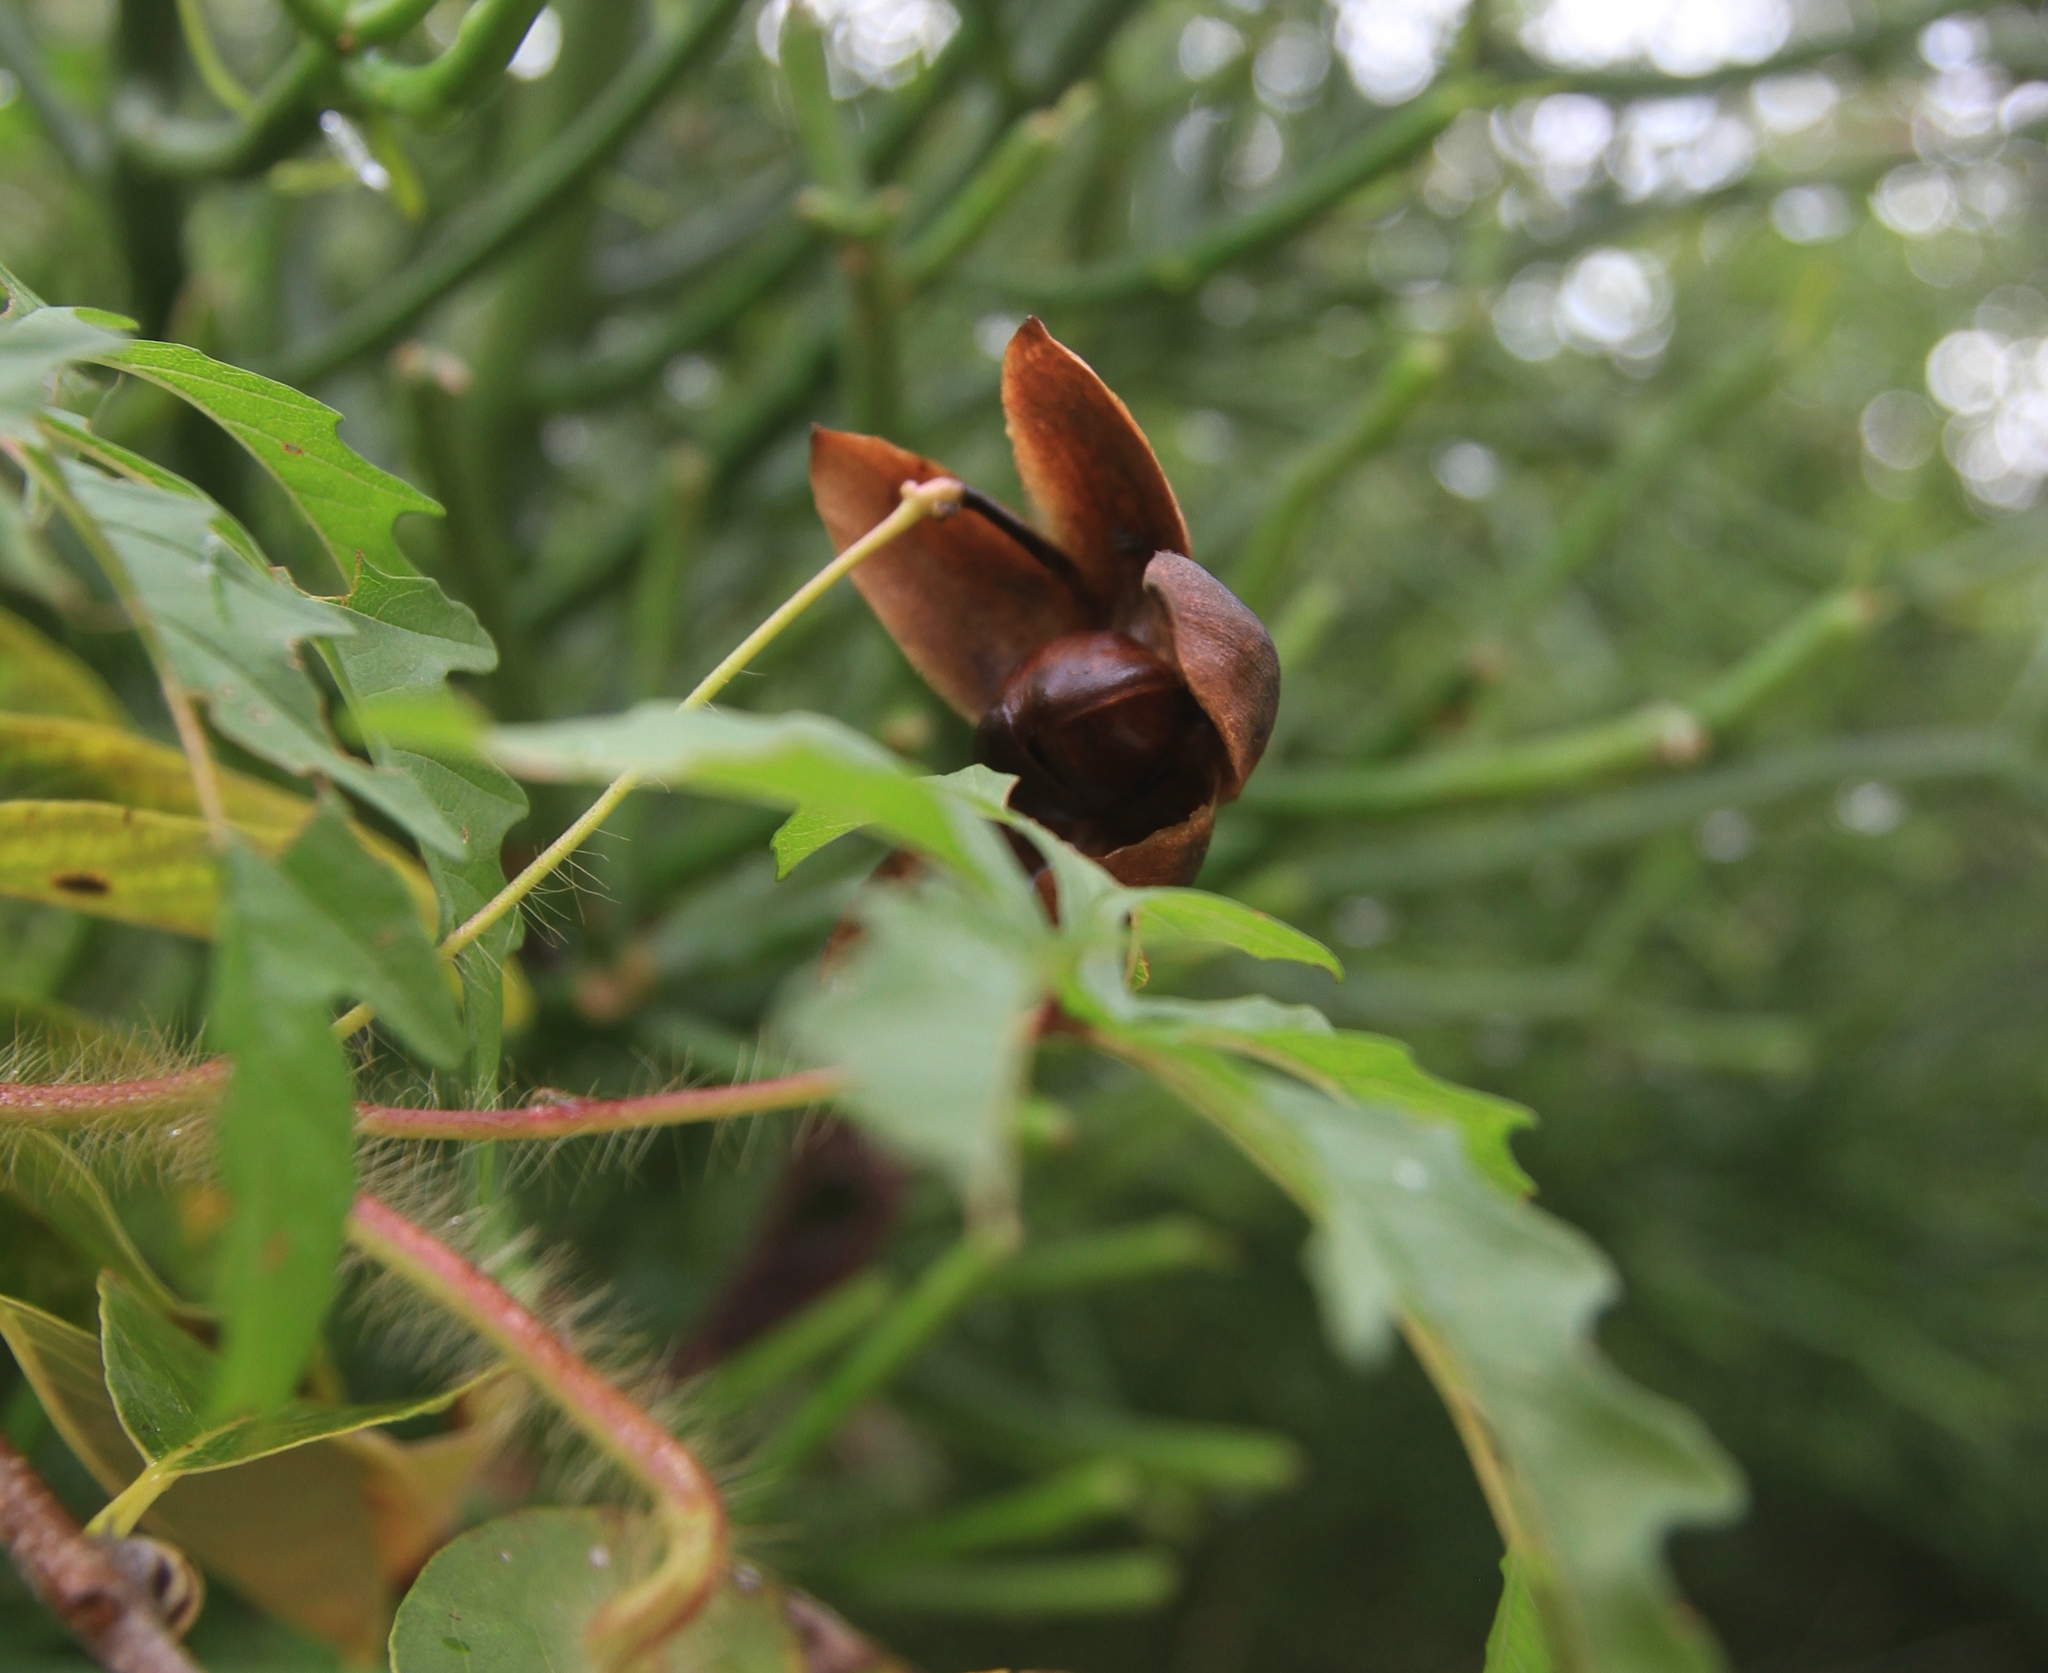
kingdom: Plantae
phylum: Tracheophyta
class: Magnoliopsida
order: Solanales
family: Convolvulaceae
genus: Distimake
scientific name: Distimake dissectus
